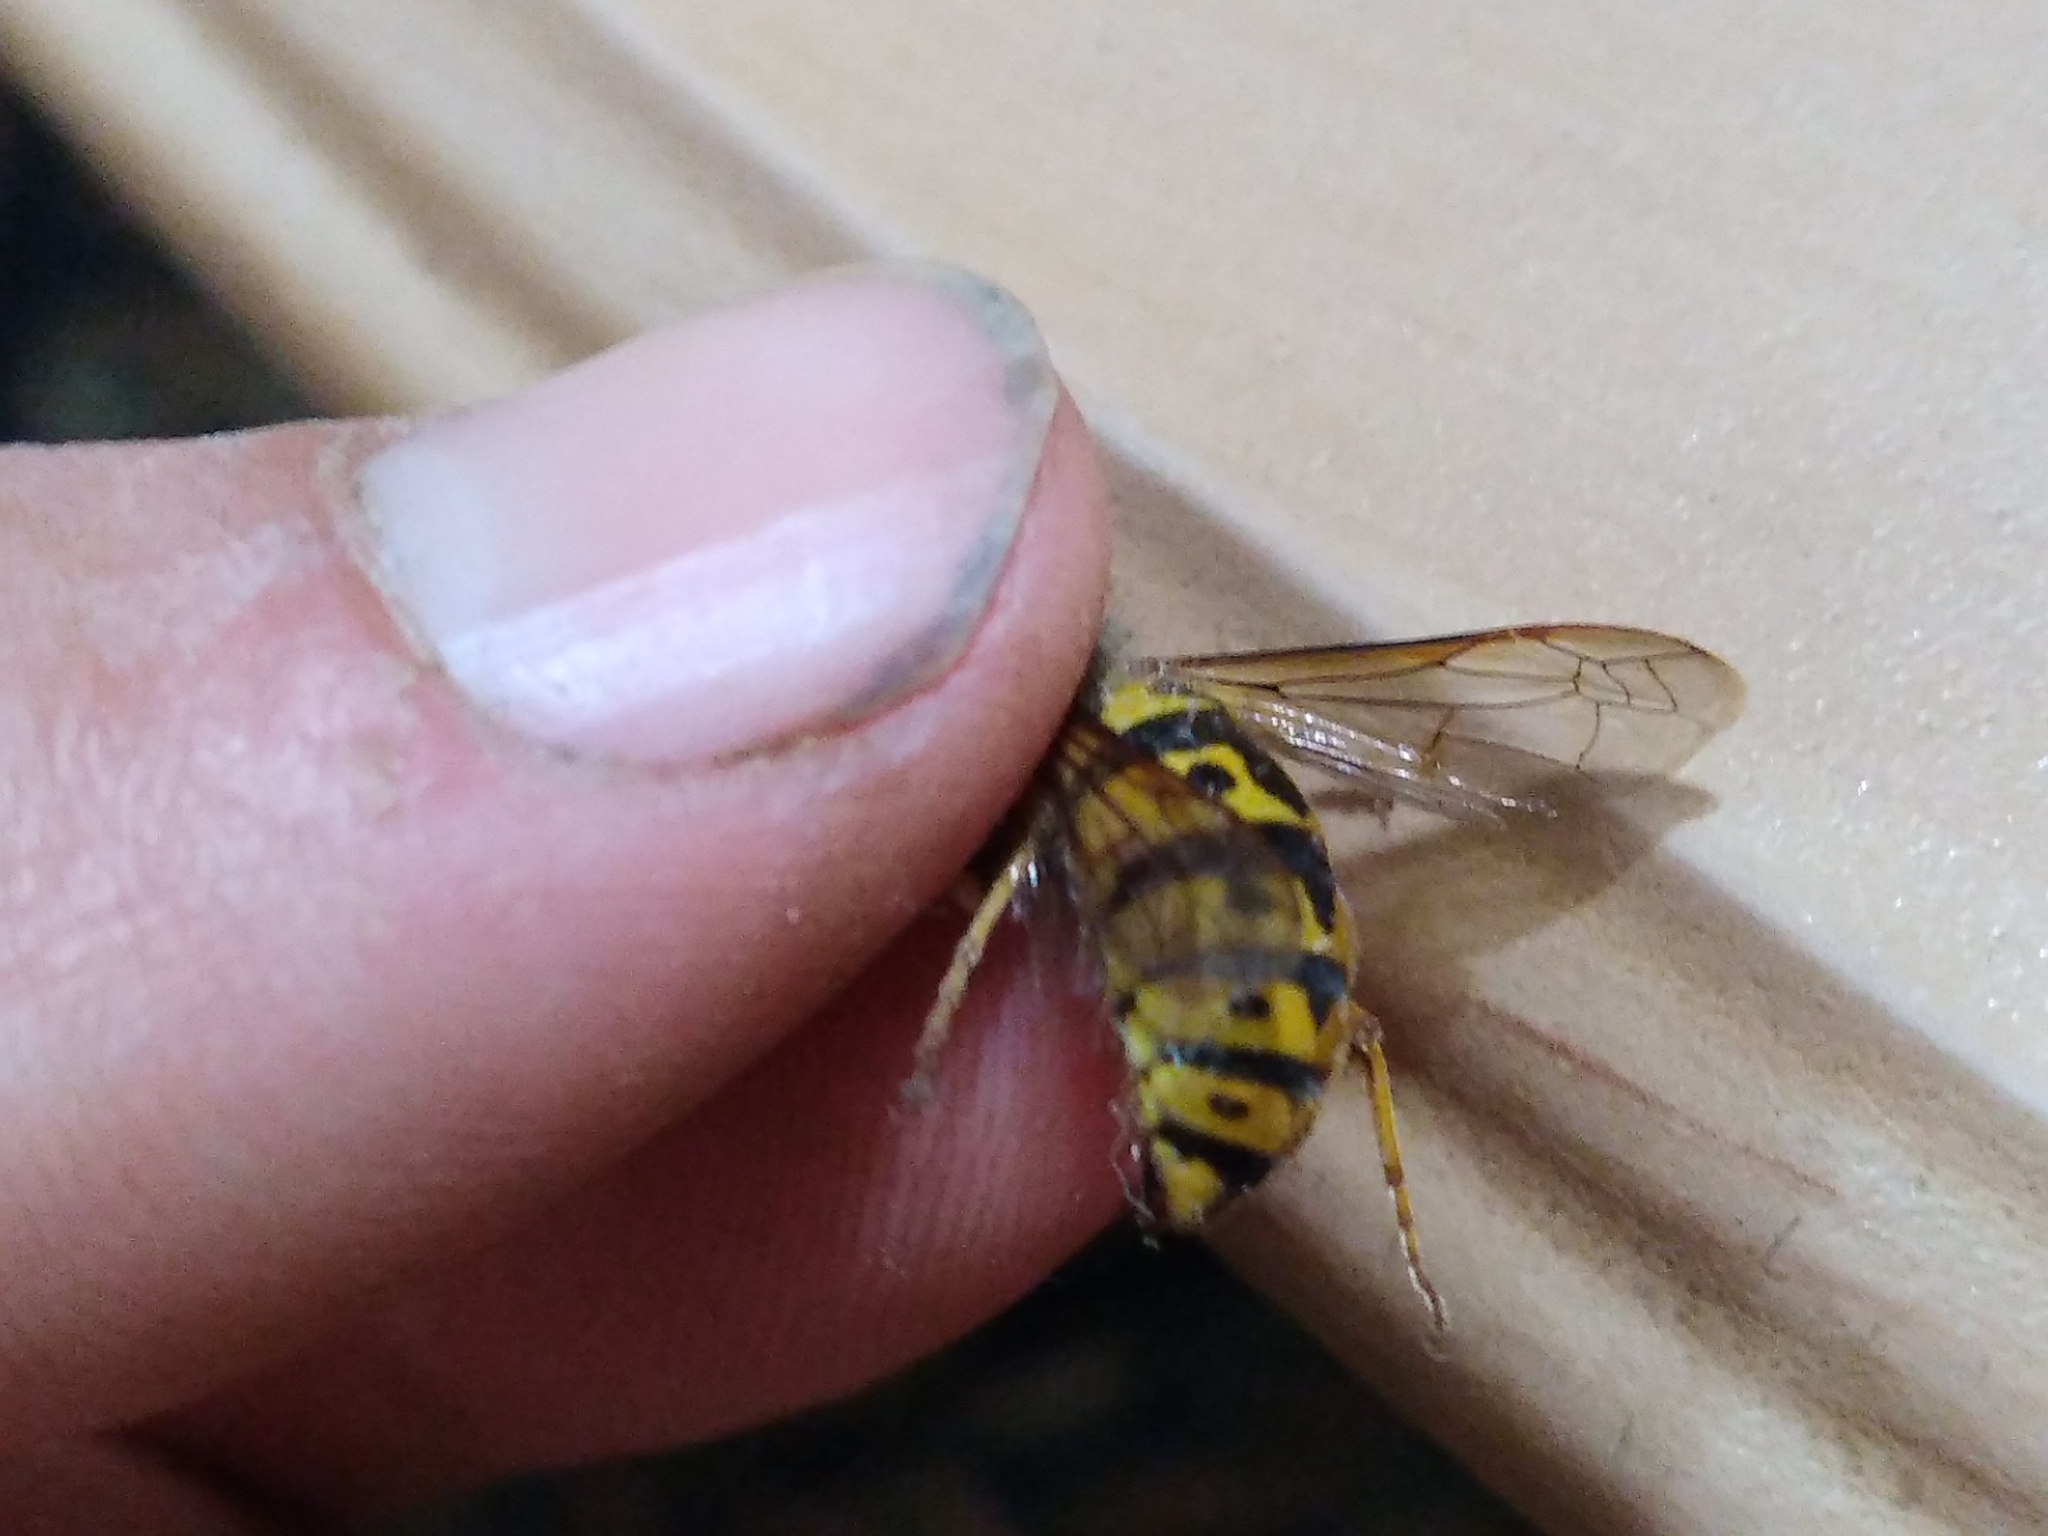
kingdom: Animalia
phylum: Arthropoda
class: Insecta
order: Hymenoptera
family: Vespidae
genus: Vespula
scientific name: Vespula germanica
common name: German wasp
